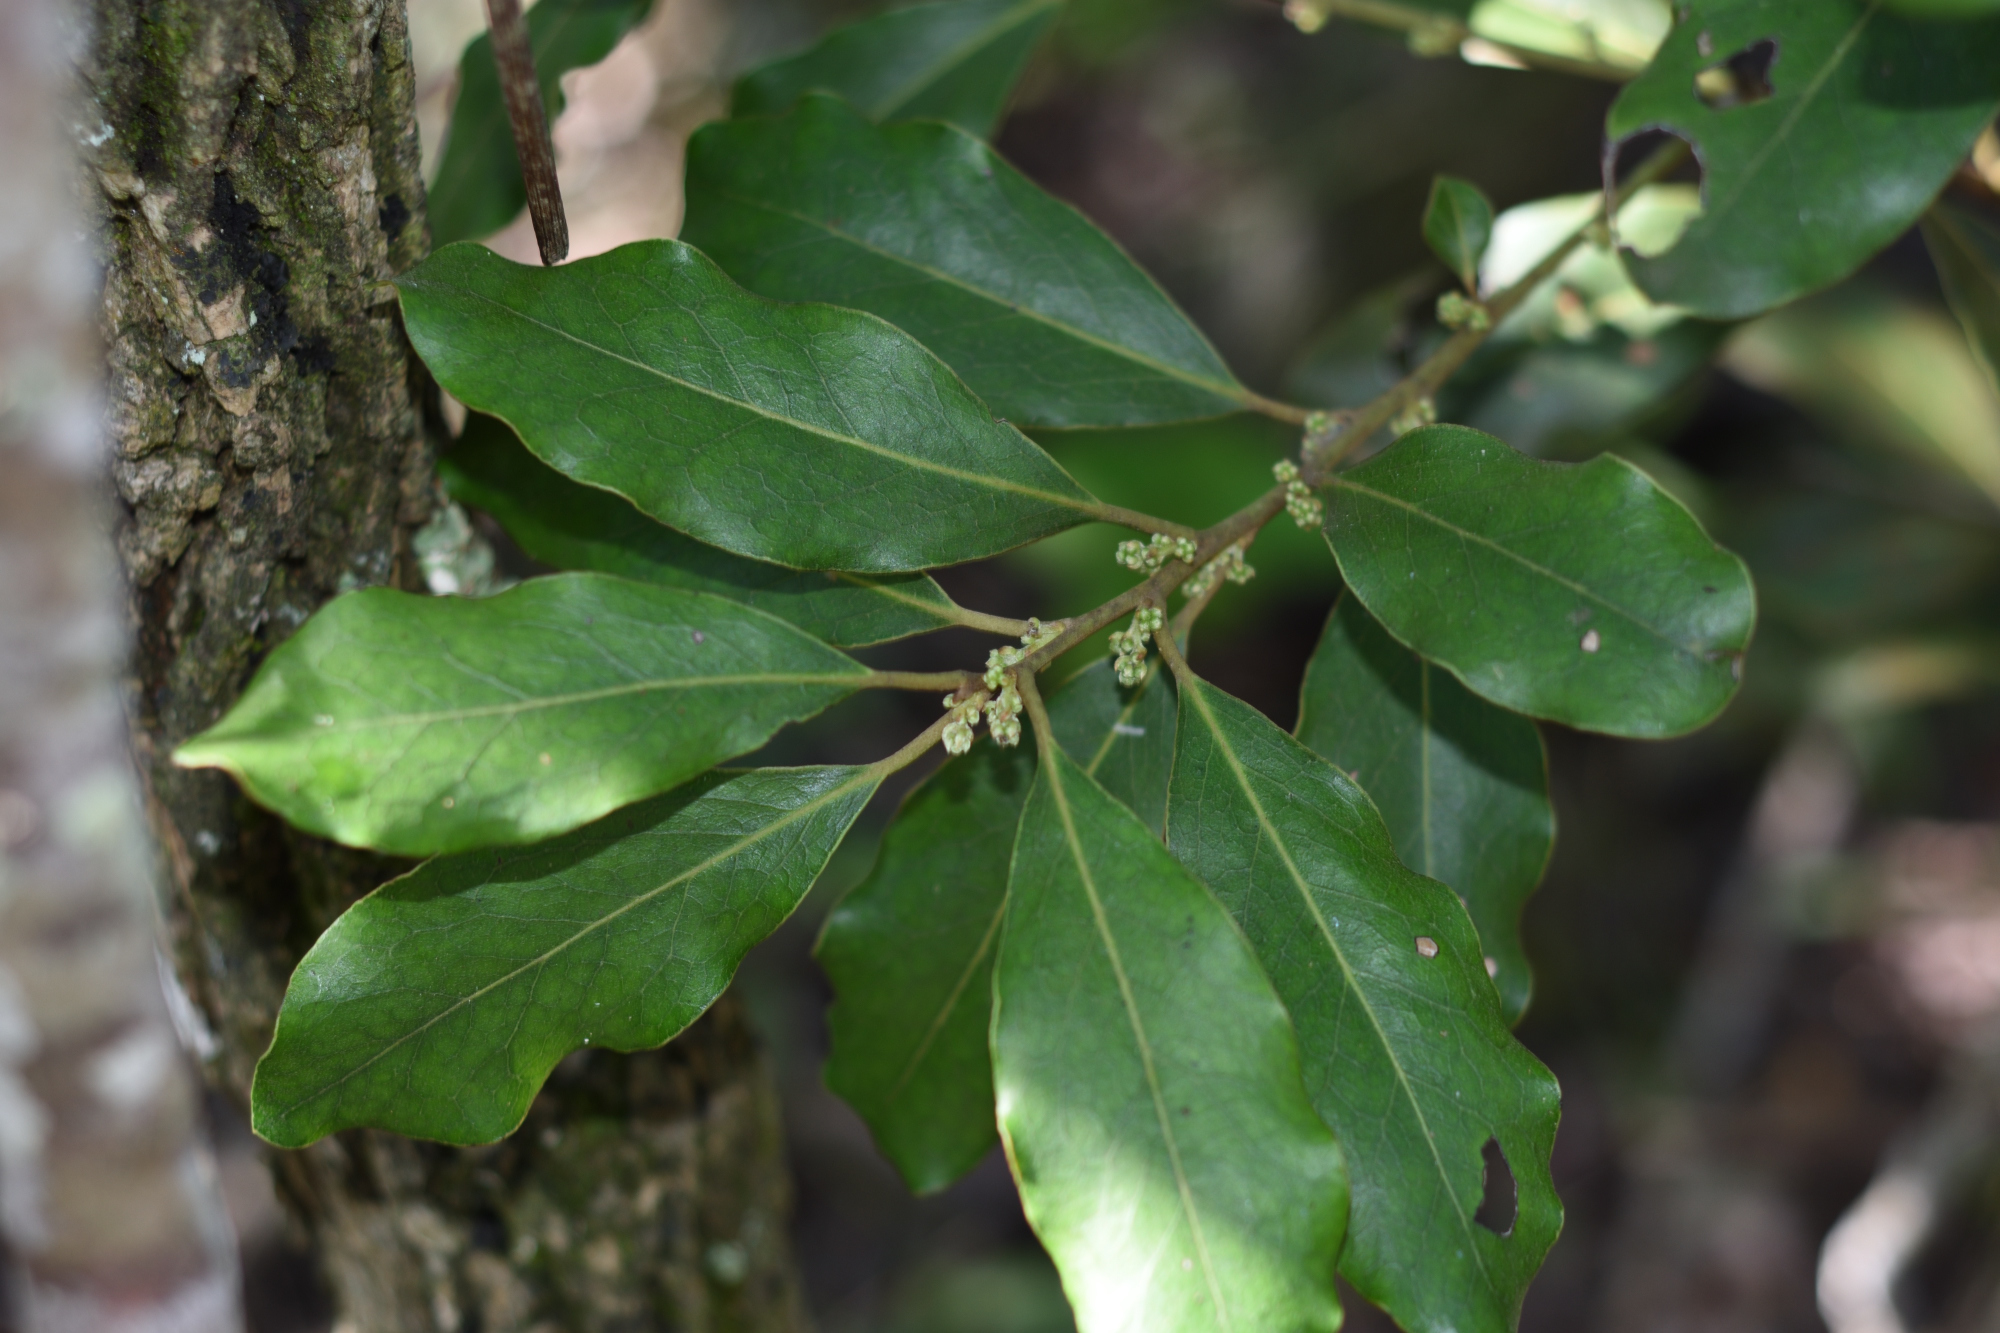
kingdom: Plantae
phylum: Tracheophyta
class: Magnoliopsida
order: Ericales
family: Ebenaceae
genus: Euclea
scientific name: Euclea natalensis
